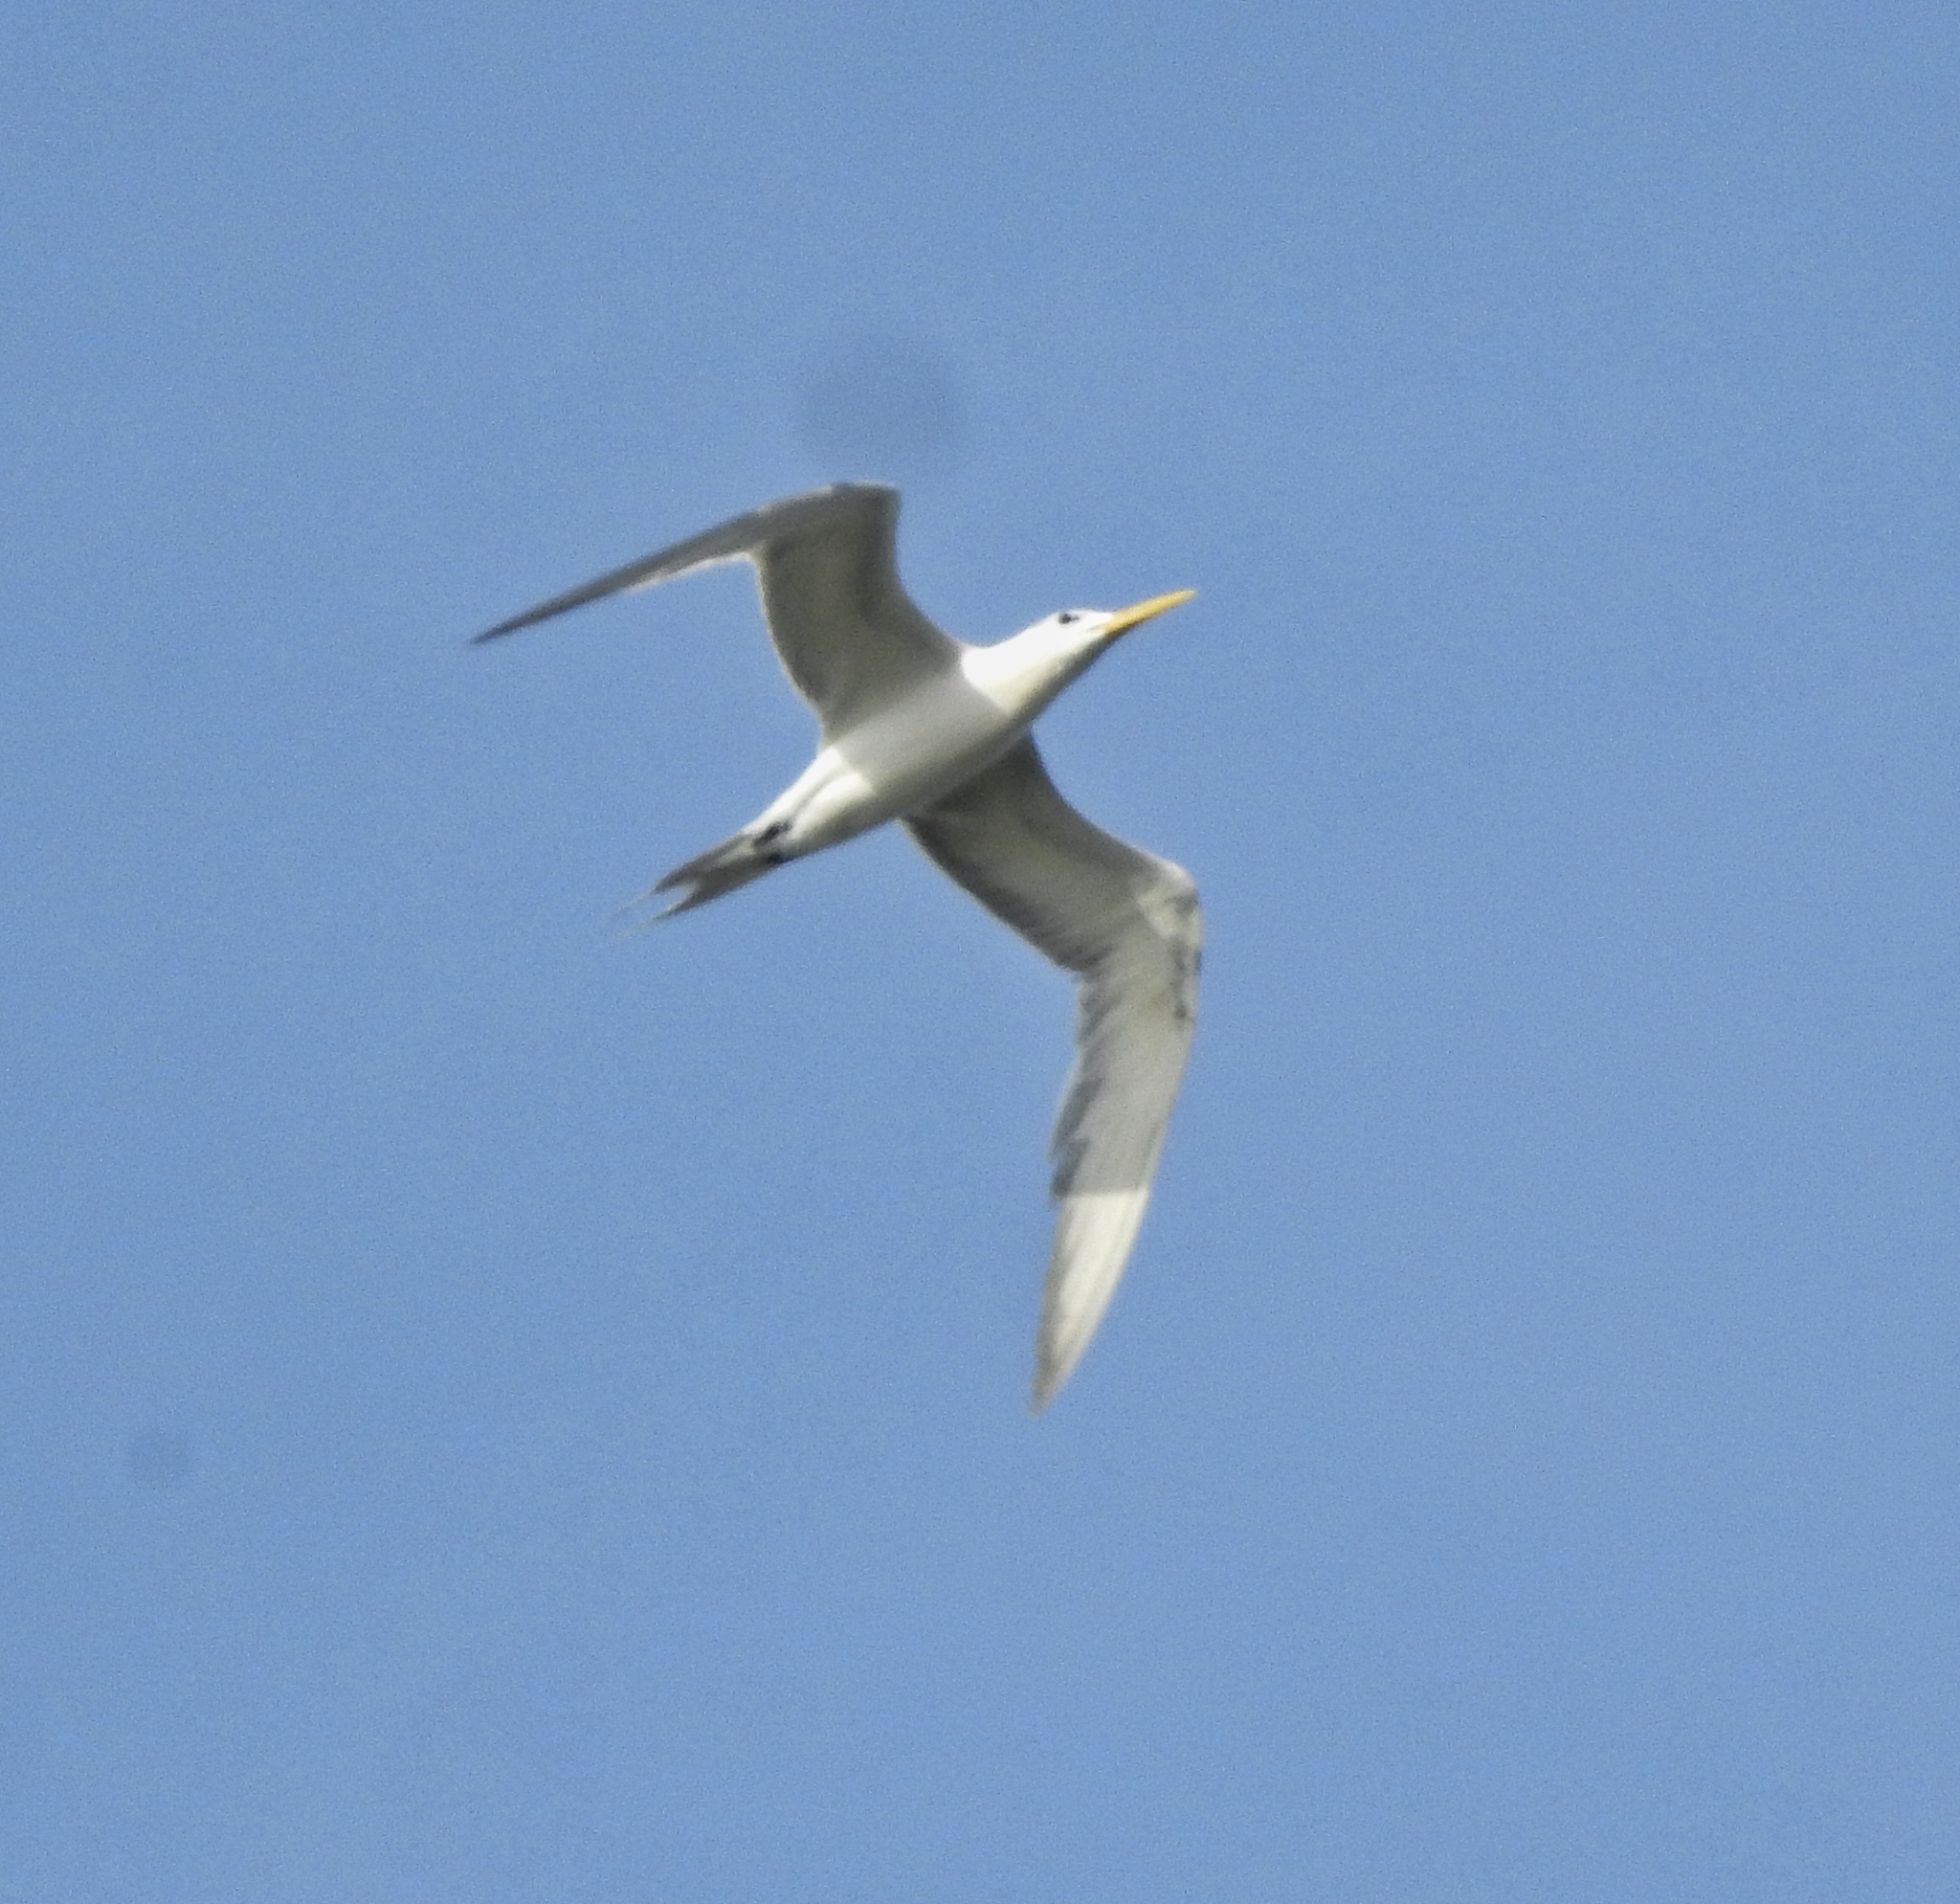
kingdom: Animalia
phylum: Chordata
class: Aves
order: Charadriiformes
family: Laridae
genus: Thalasseus
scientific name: Thalasseus bergii
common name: Greater crested tern
